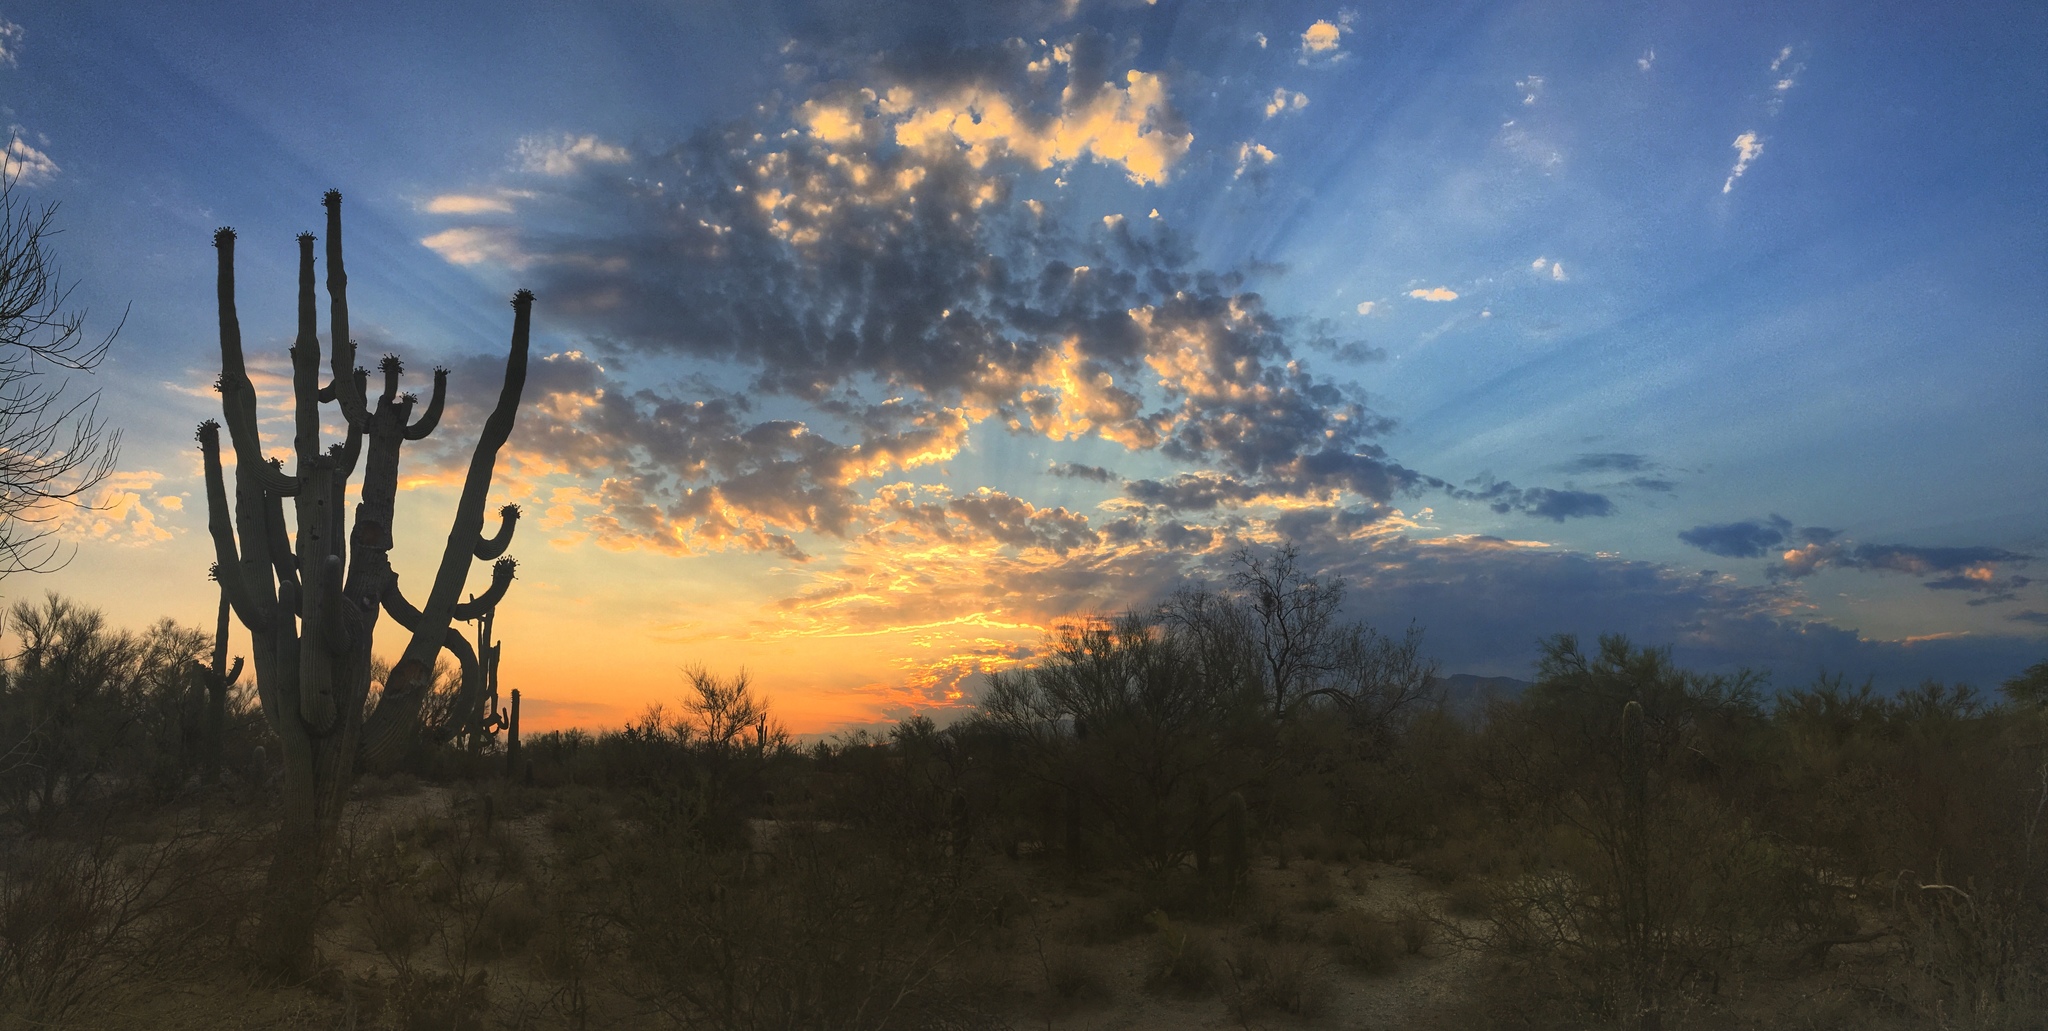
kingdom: Plantae
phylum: Tracheophyta
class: Magnoliopsida
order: Caryophyllales
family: Cactaceae
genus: Carnegiea
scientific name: Carnegiea gigantea
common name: Saguaro
